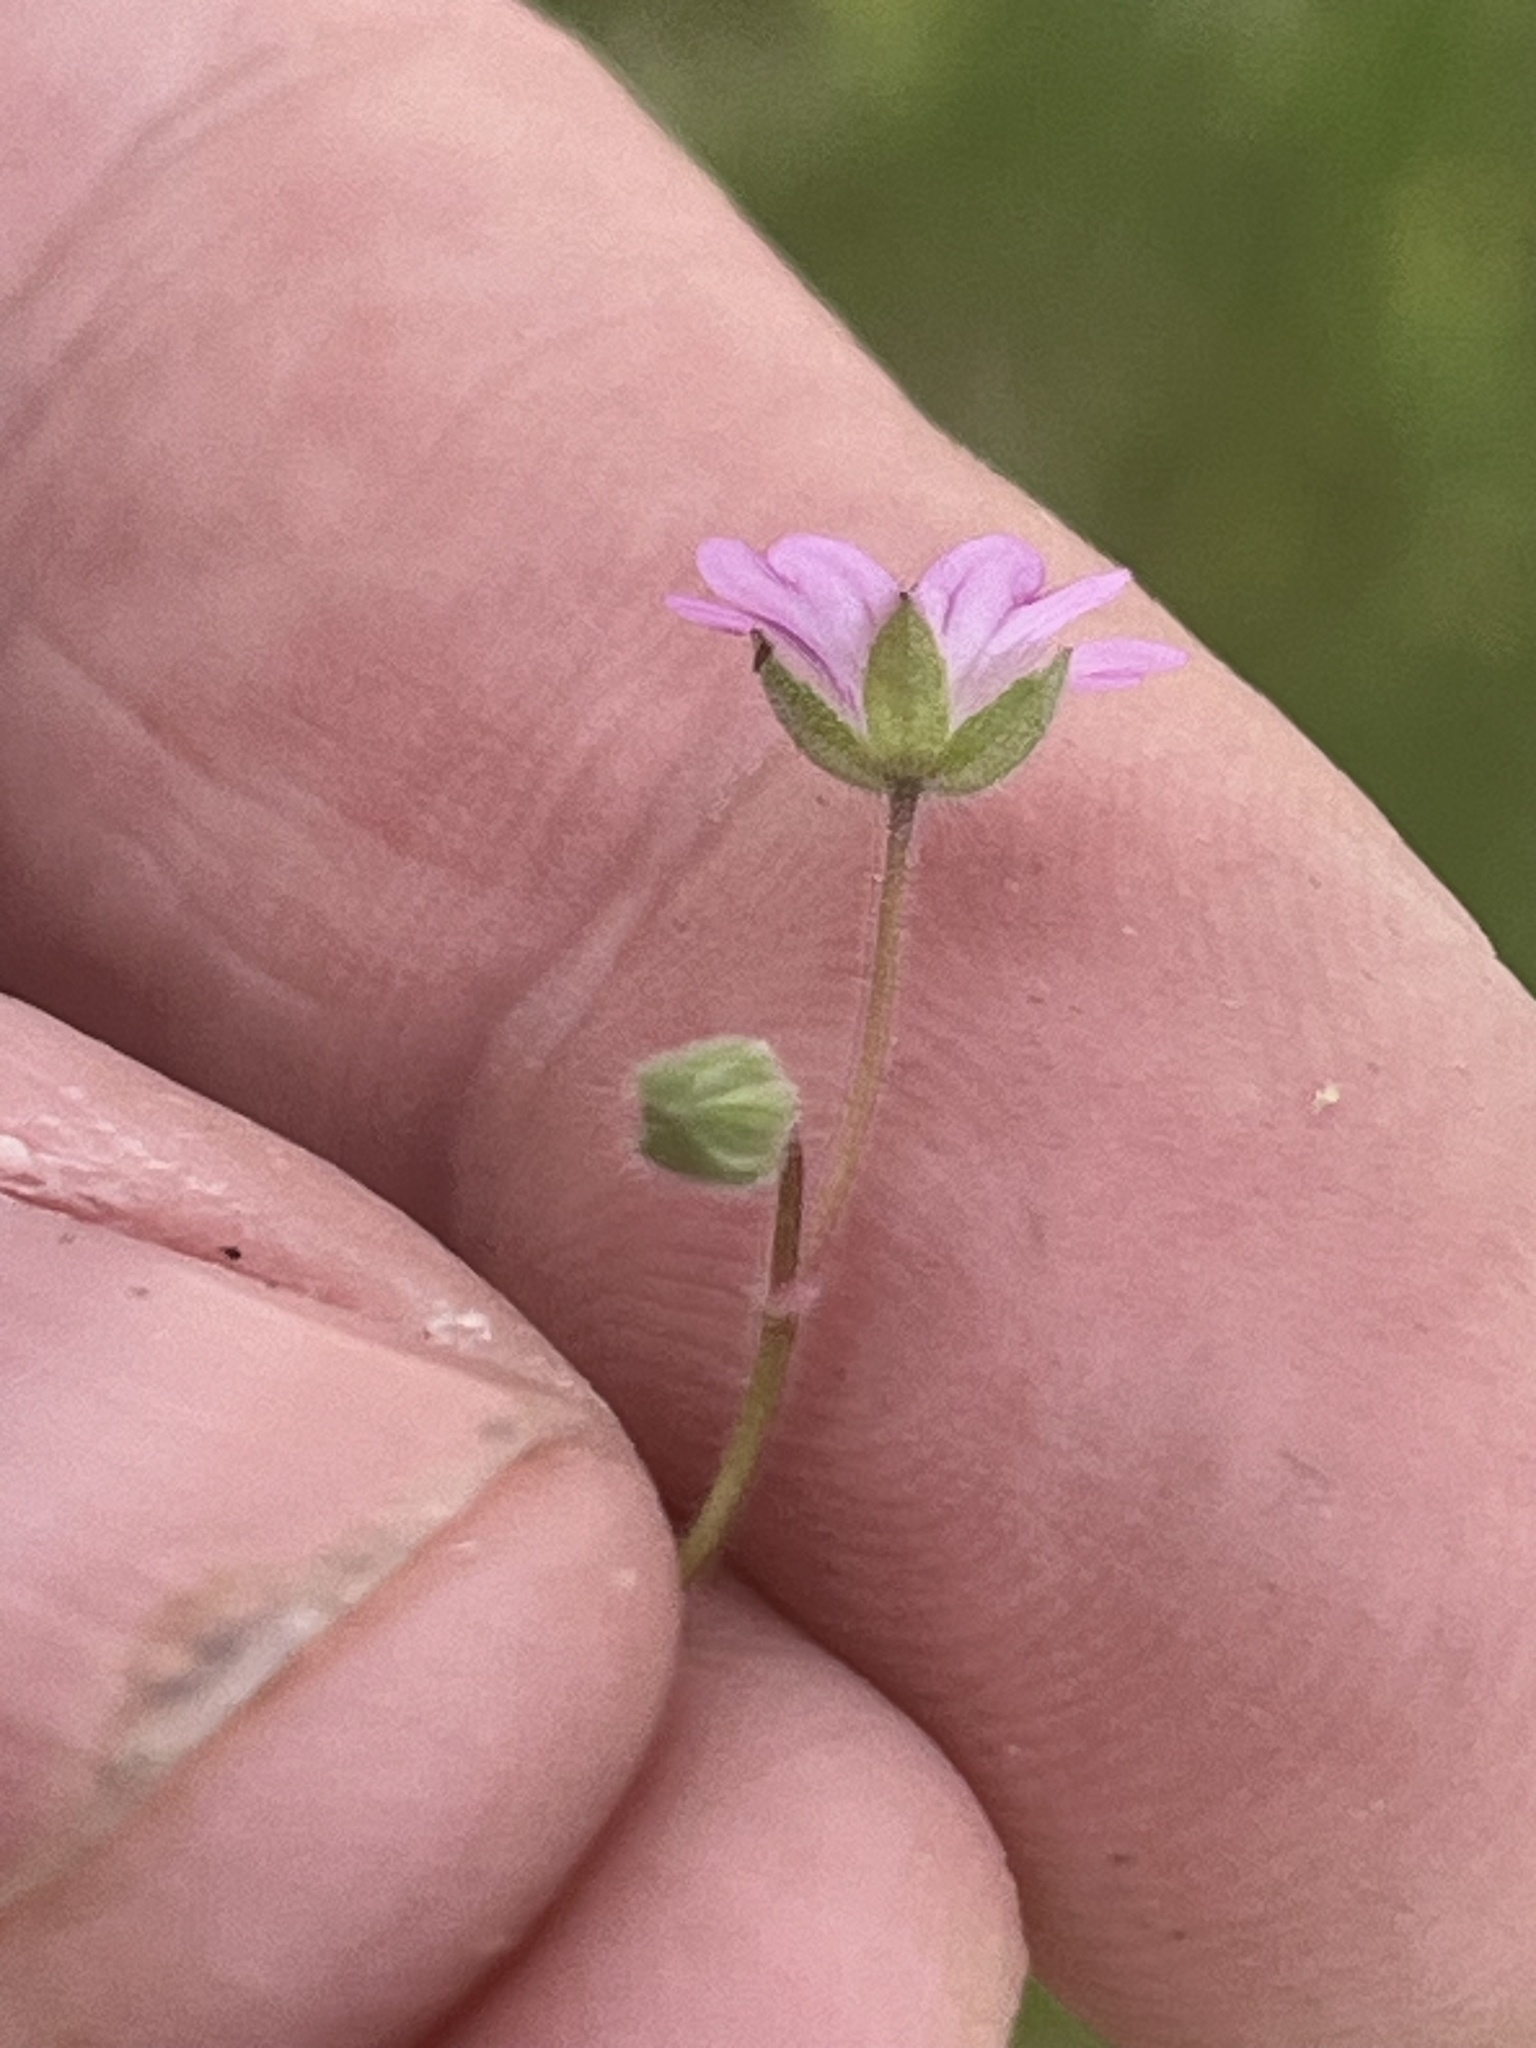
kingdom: Plantae
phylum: Tracheophyta
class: Magnoliopsida
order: Geraniales
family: Geraniaceae
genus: Geranium
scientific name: Geranium molle
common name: Dove's-foot crane's-bill
